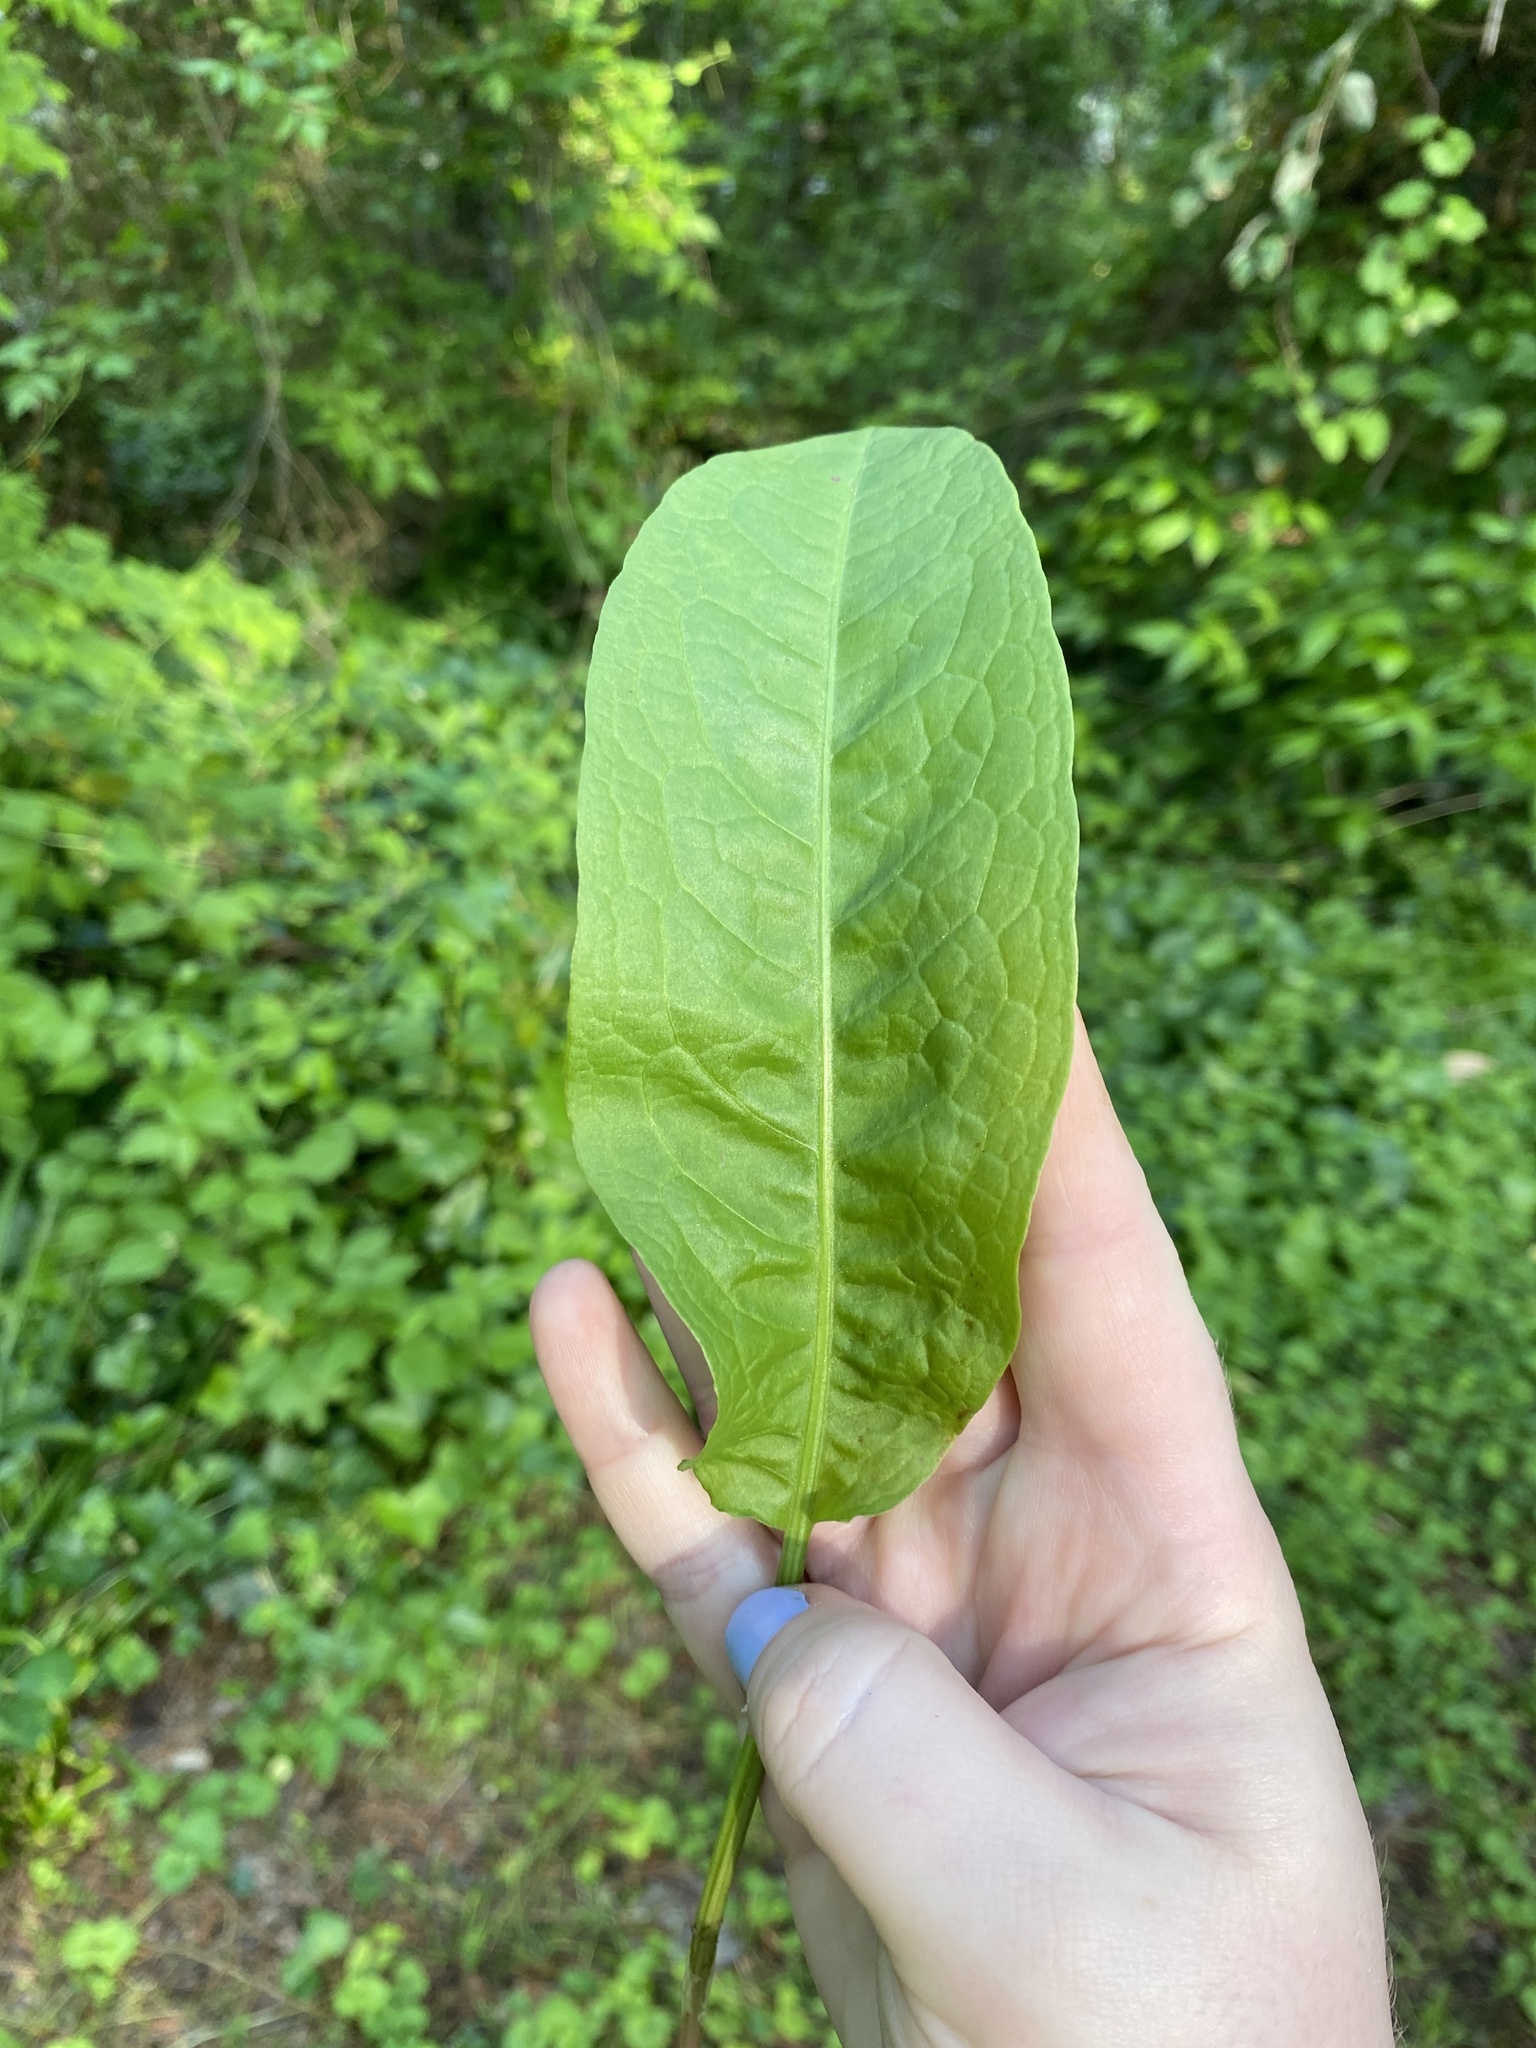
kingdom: Plantae
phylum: Tracheophyta
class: Magnoliopsida
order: Caryophyllales
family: Polygonaceae
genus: Rumex
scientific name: Rumex crispus
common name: Curled dock
